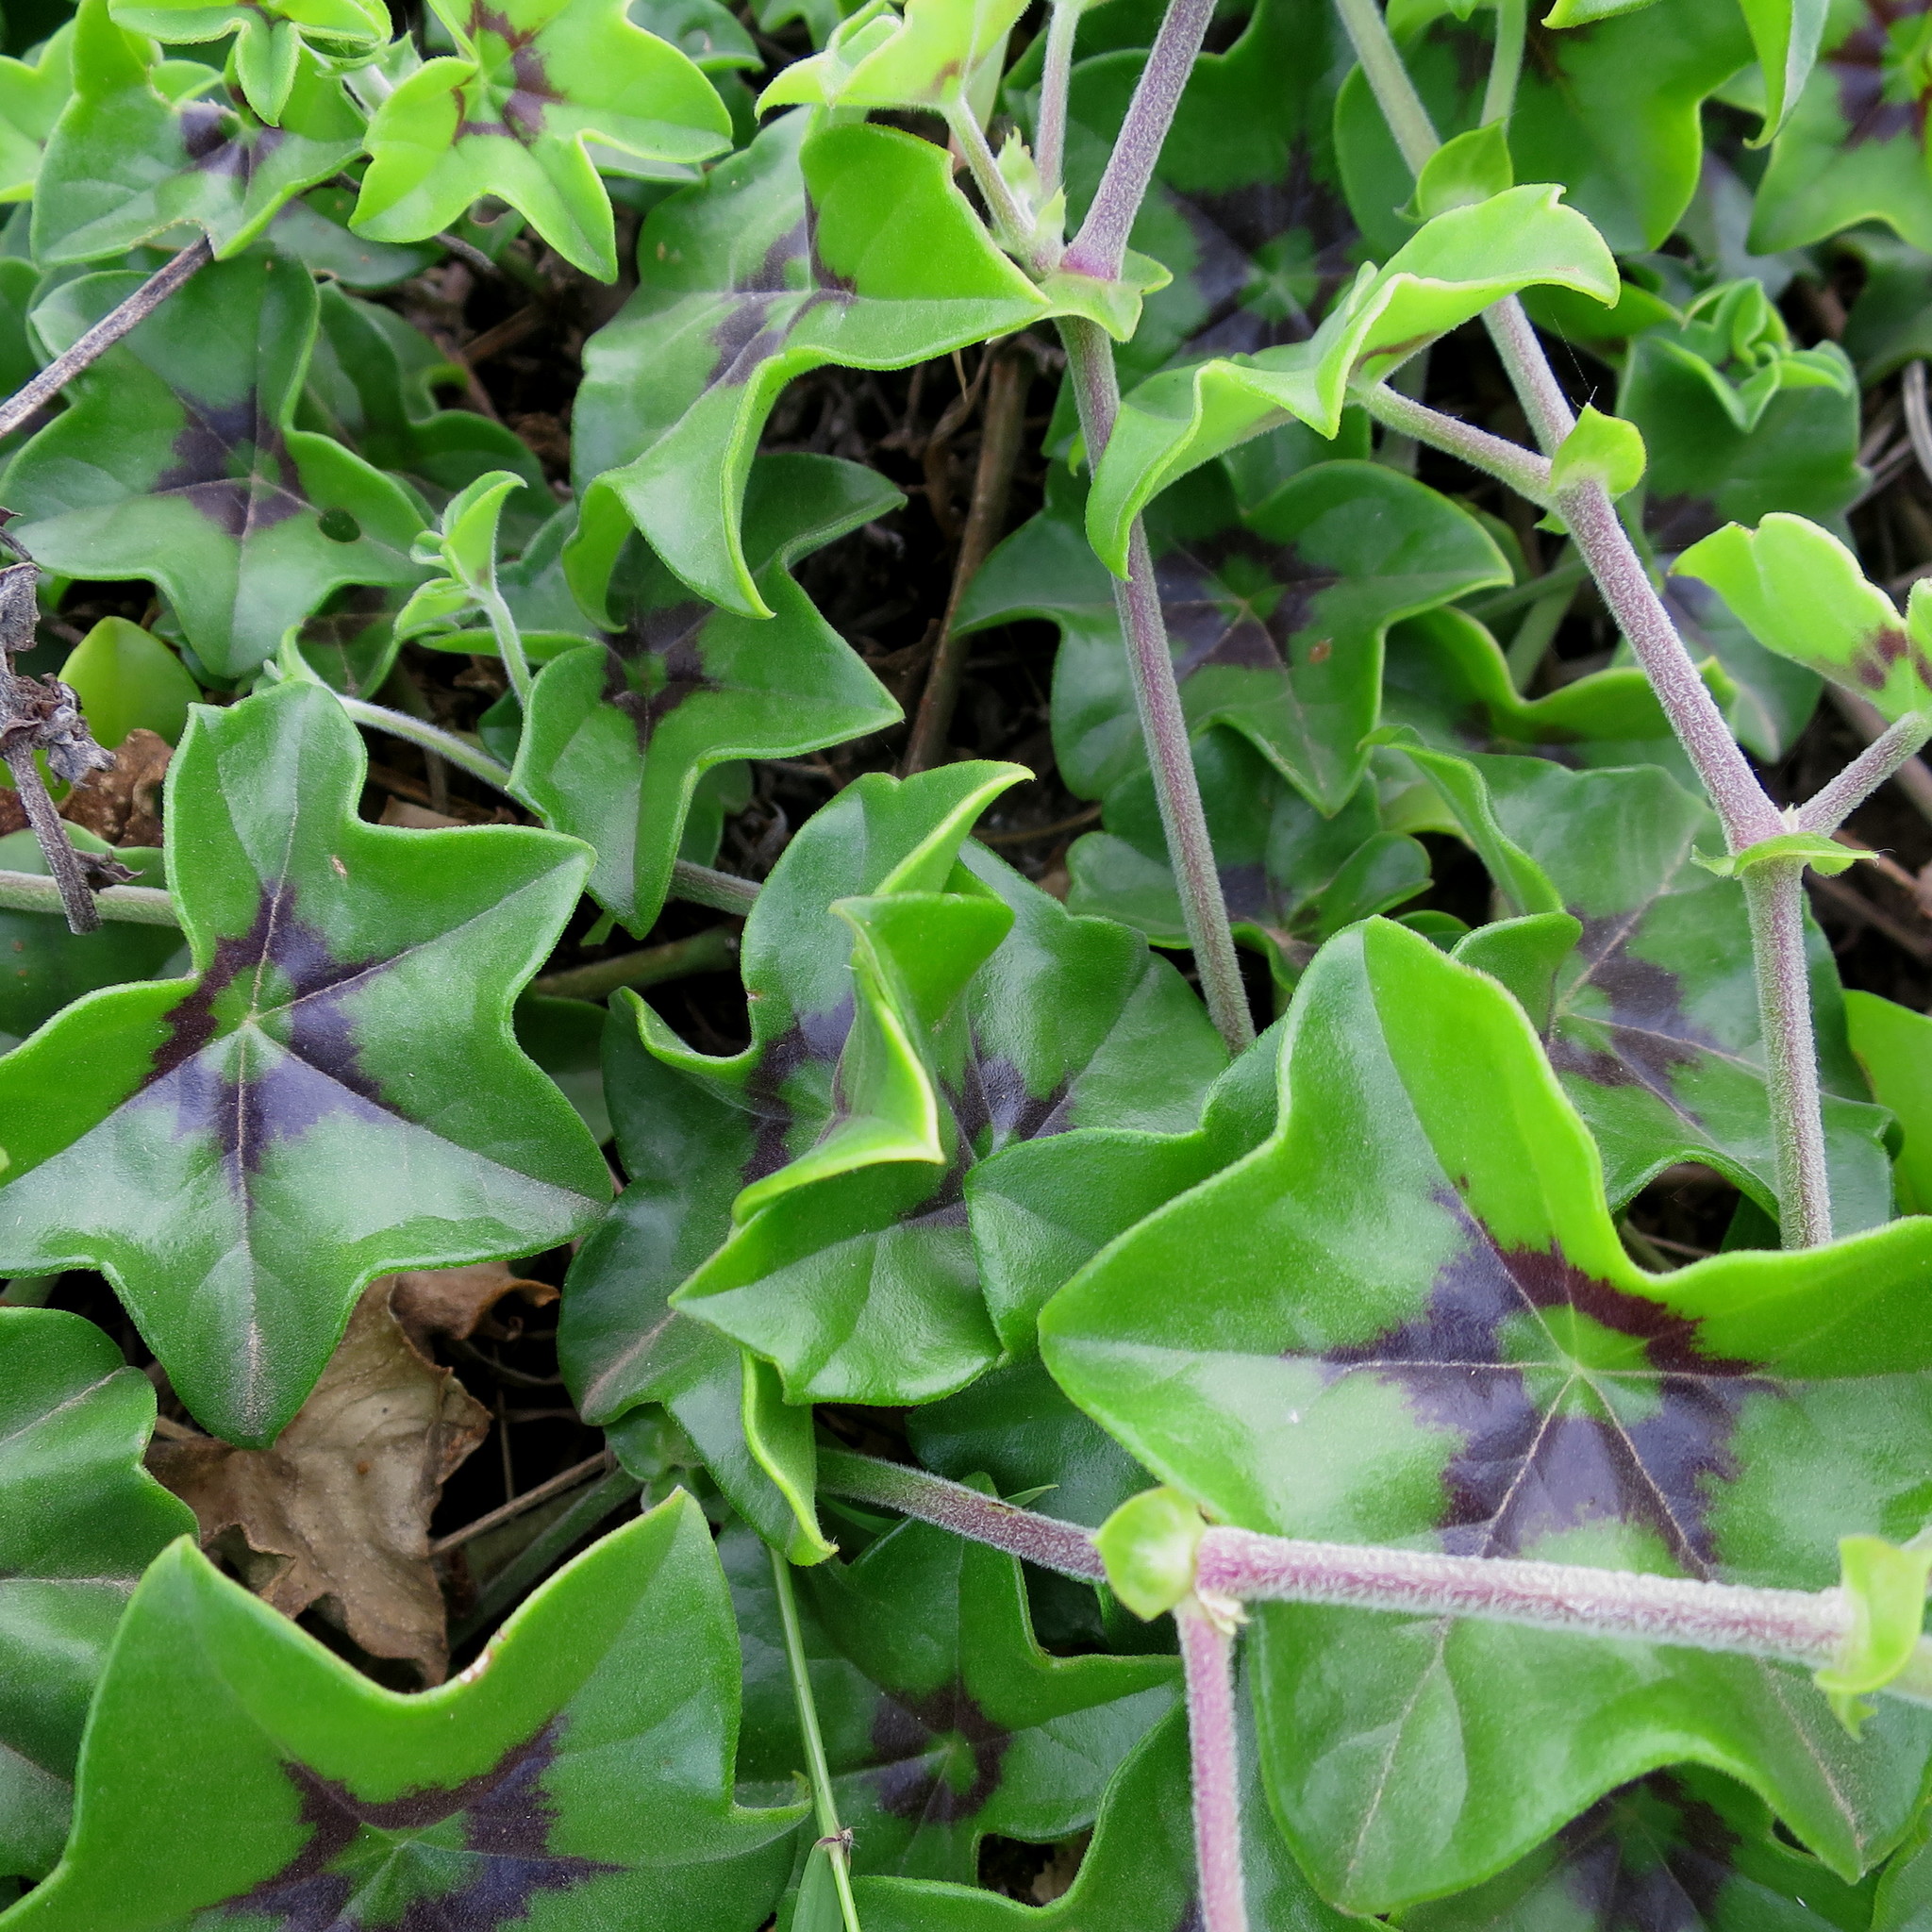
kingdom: Plantae
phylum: Tracheophyta
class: Magnoliopsida
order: Geraniales
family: Geraniaceae
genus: Pelargonium
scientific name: Pelargonium peltatum
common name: Ivyleaf geranium
